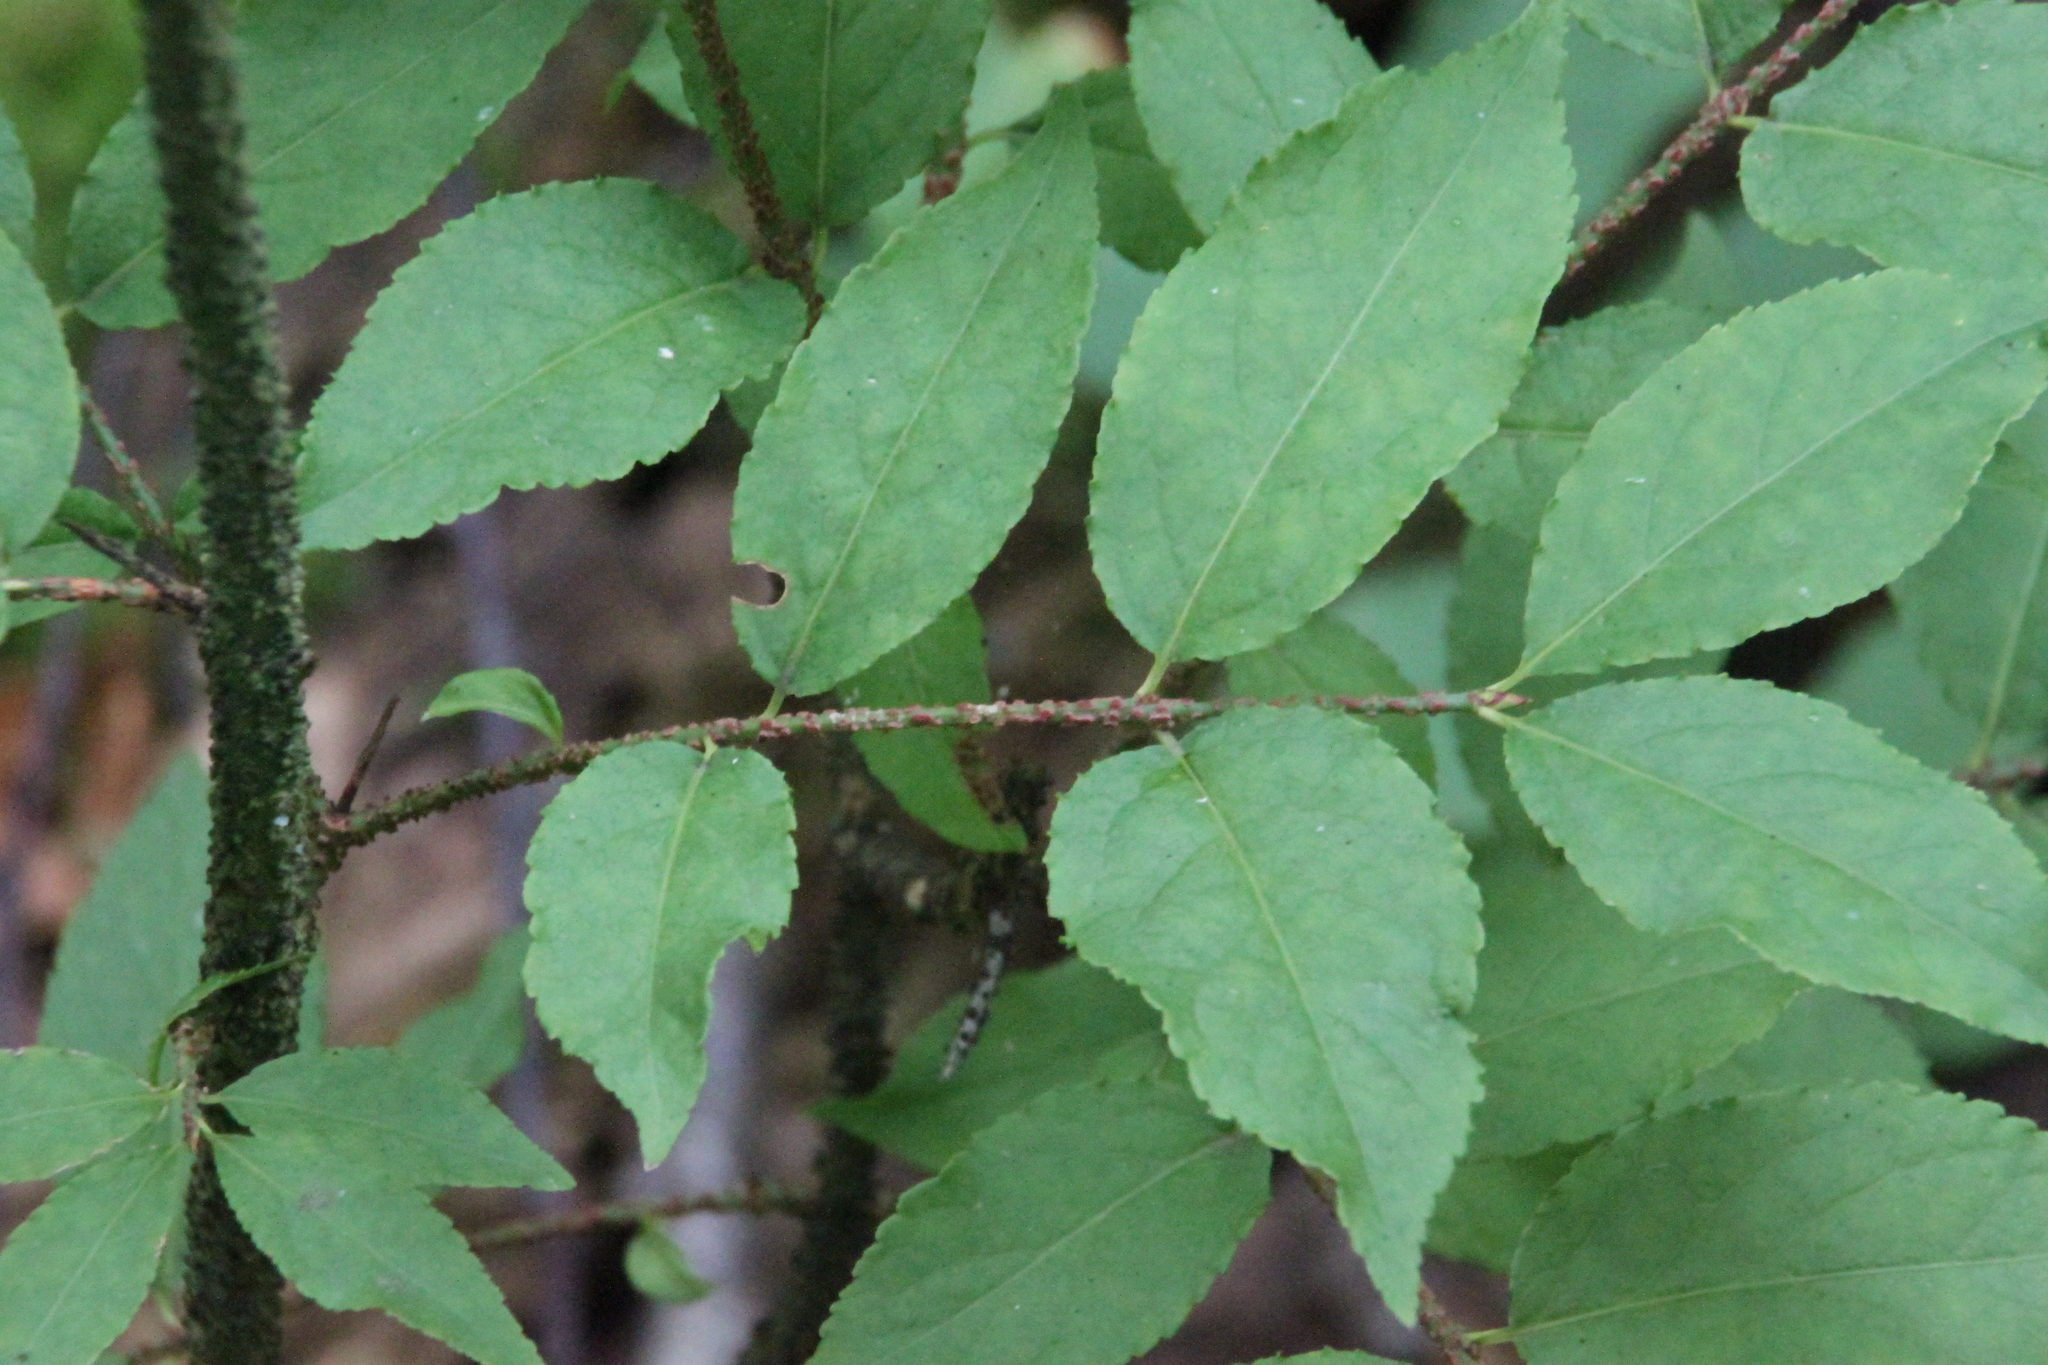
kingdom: Plantae
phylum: Tracheophyta
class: Magnoliopsida
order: Celastrales
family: Celastraceae
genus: Euonymus
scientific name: Euonymus verrucosus
